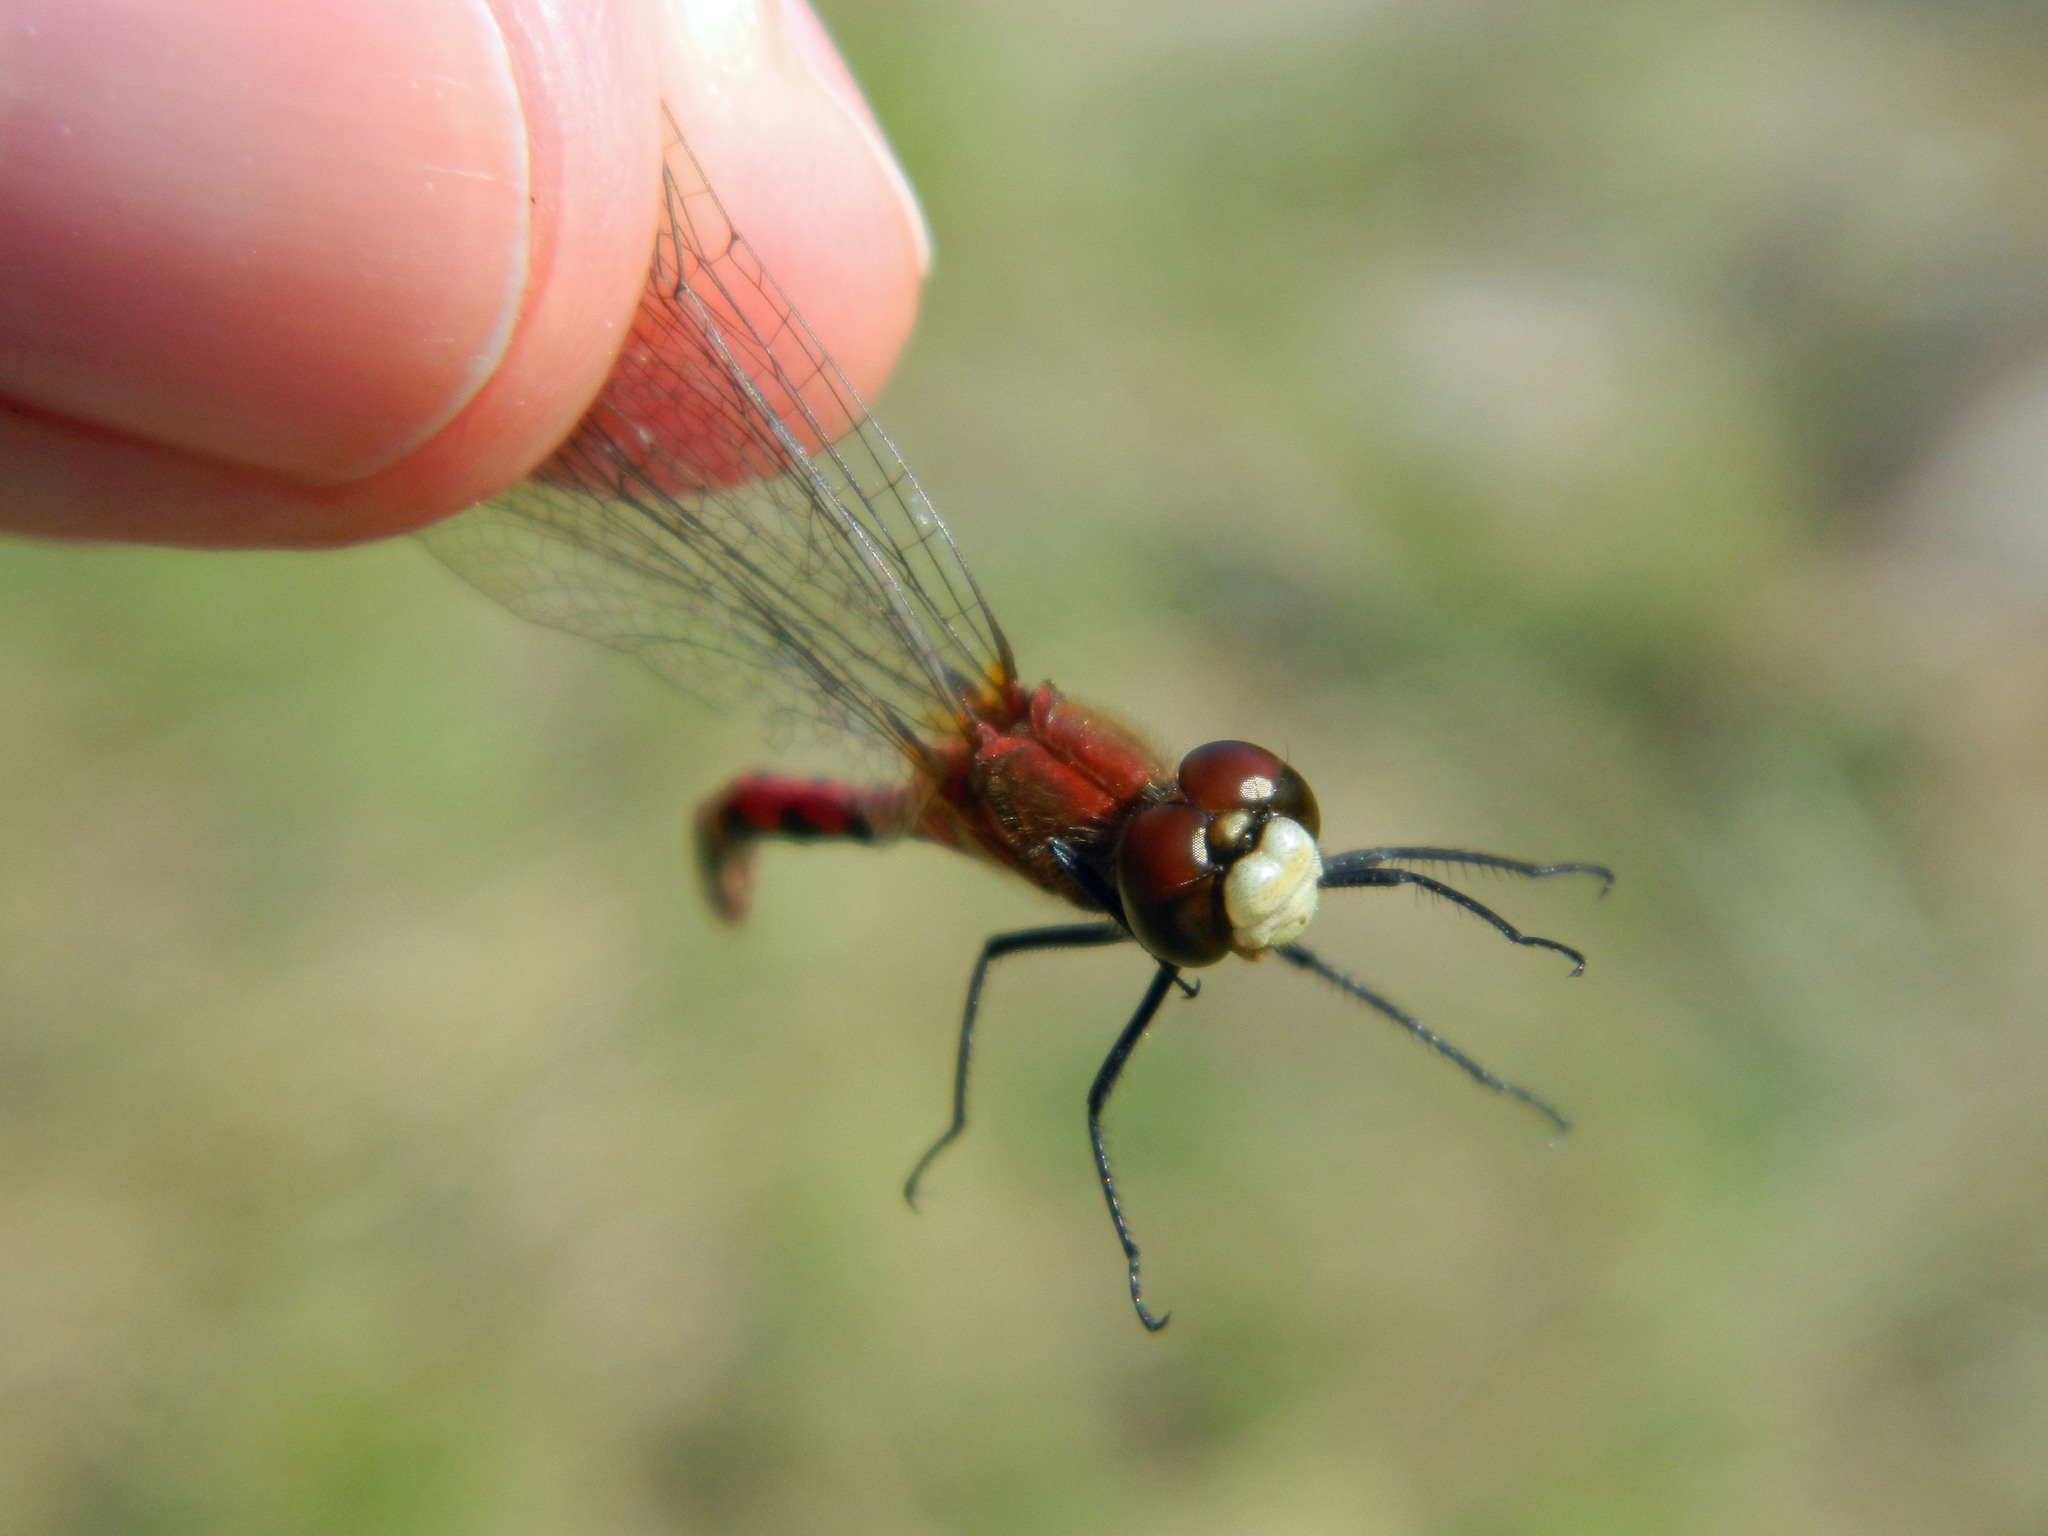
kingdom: Animalia
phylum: Arthropoda
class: Insecta
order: Odonata
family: Libellulidae
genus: Sympetrum
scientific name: Sympetrum obtrusum
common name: White-faced meadowhawk
